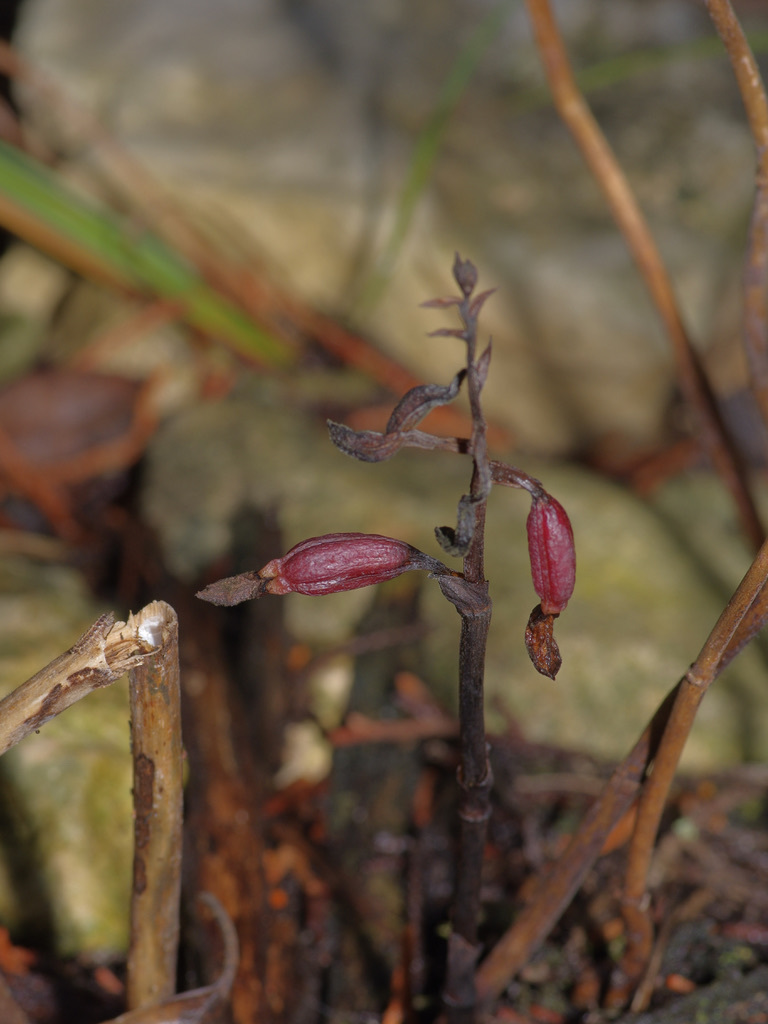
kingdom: Plantae
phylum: Tracheophyta
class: Liliopsida
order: Asparagales
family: Orchidaceae
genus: Bletia
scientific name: Bletia nitida
